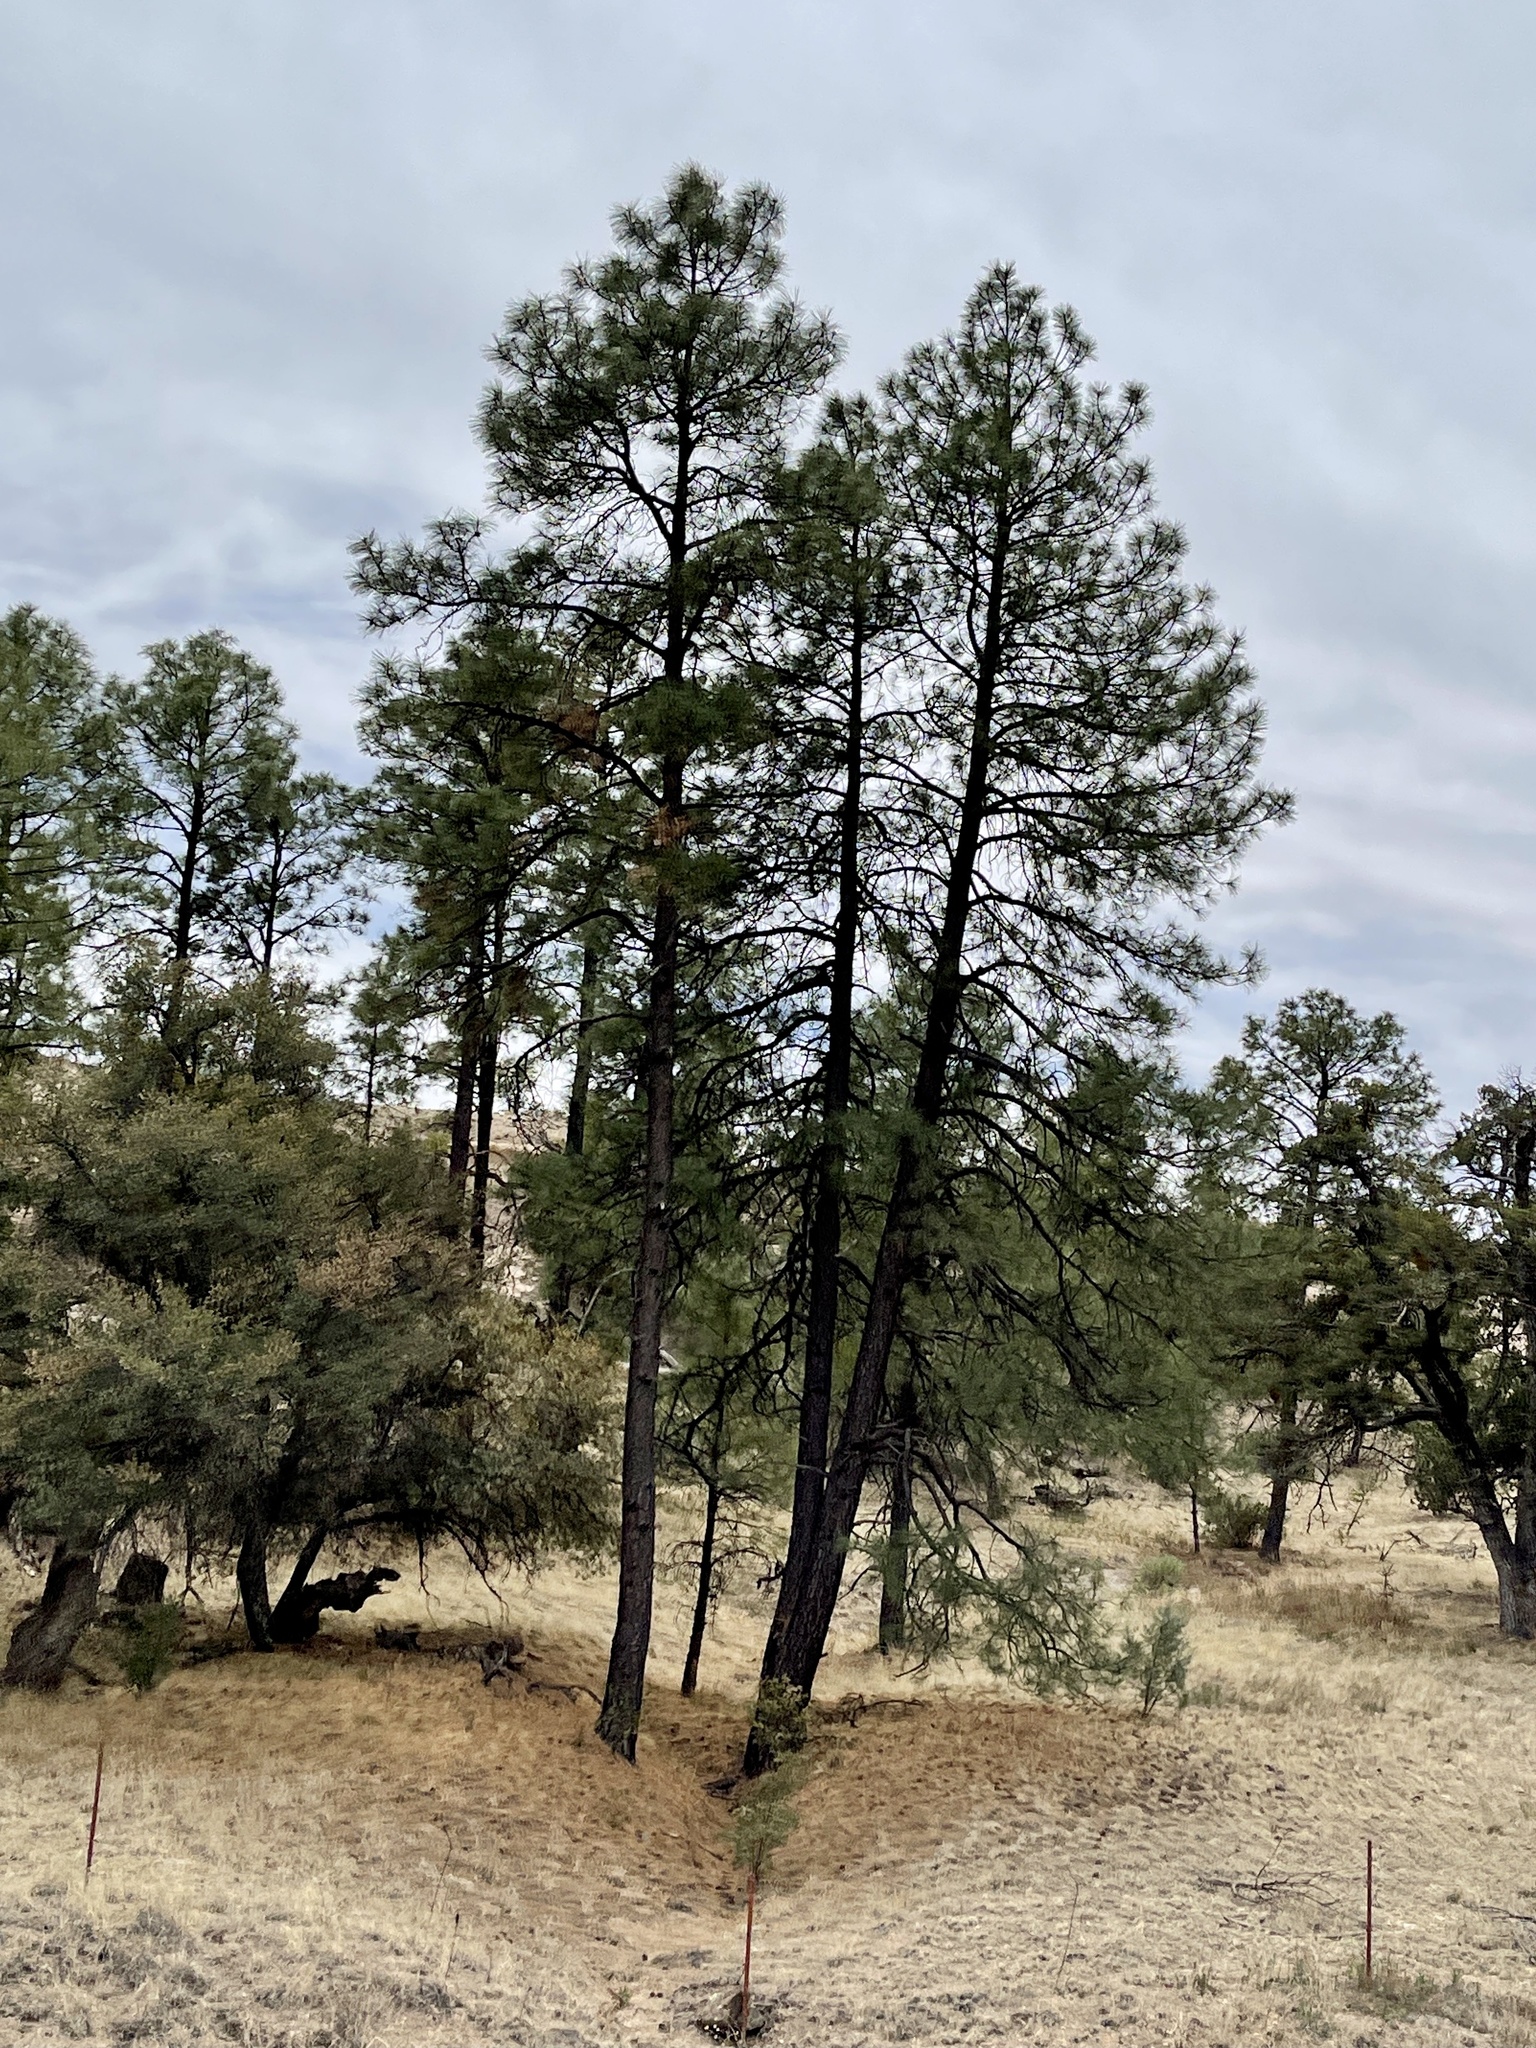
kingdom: Plantae
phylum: Tracheophyta
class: Pinopsida
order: Pinales
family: Pinaceae
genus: Pinus
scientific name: Pinus ponderosa
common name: Western yellow-pine
